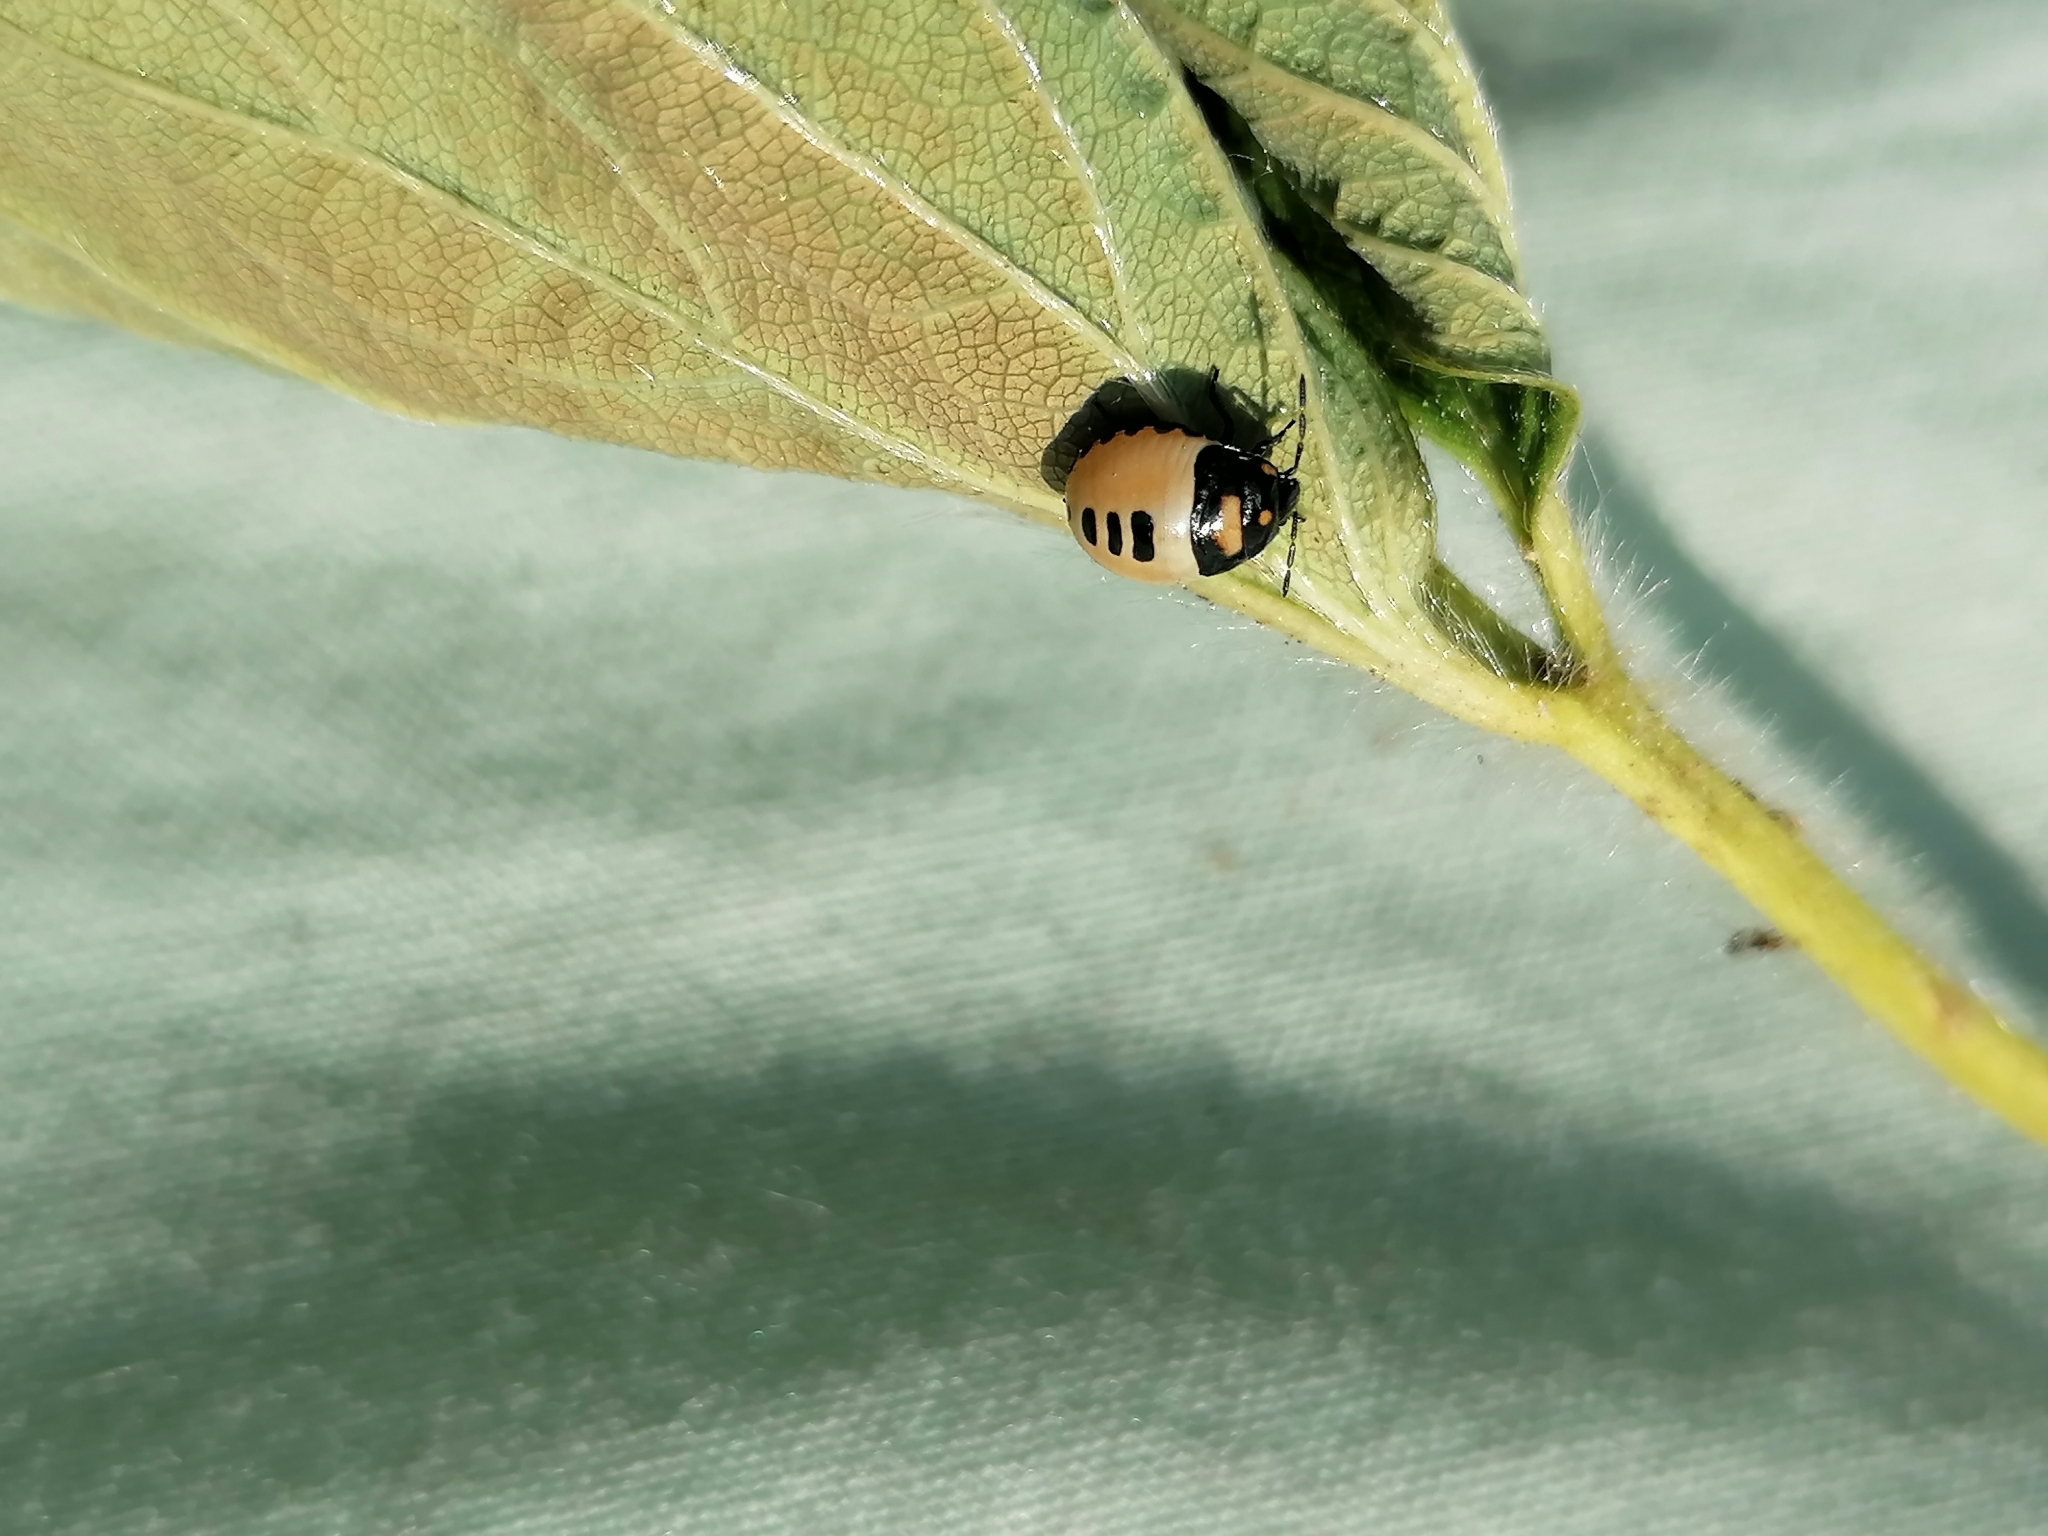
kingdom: Animalia
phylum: Arthropoda
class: Insecta
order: Hemiptera
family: Cydnidae
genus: Tritomegas
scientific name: Tritomegas bicolor
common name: Pied shieldbug
